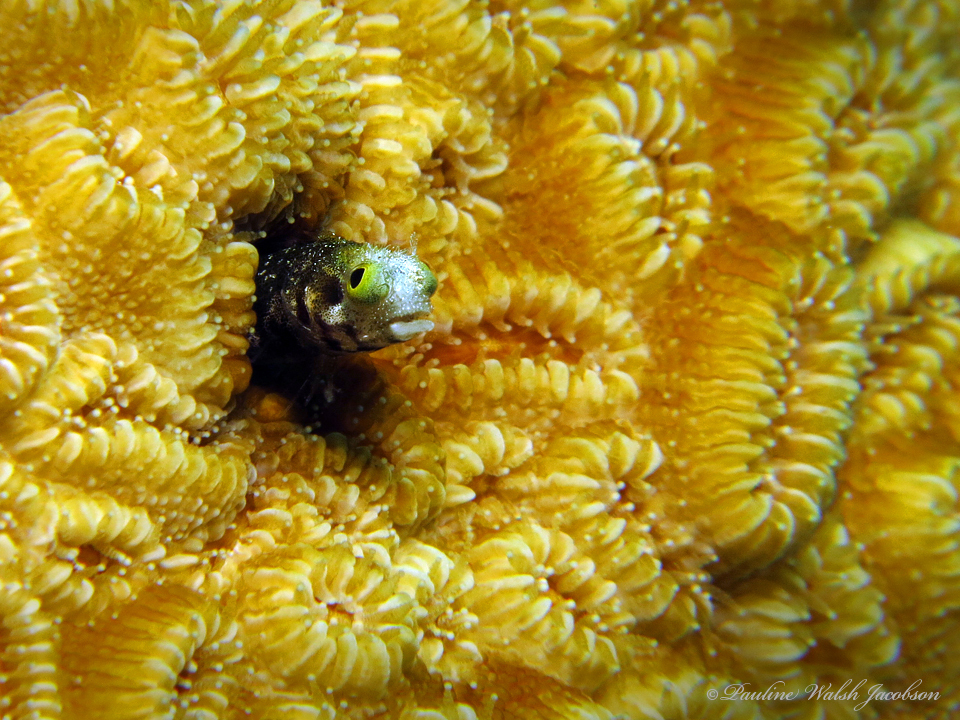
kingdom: Animalia
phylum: Chordata
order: Perciformes
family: Chaenopsidae
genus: Acanthemblemaria
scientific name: Acanthemblemaria spinosa
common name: Spinyhead blenny
